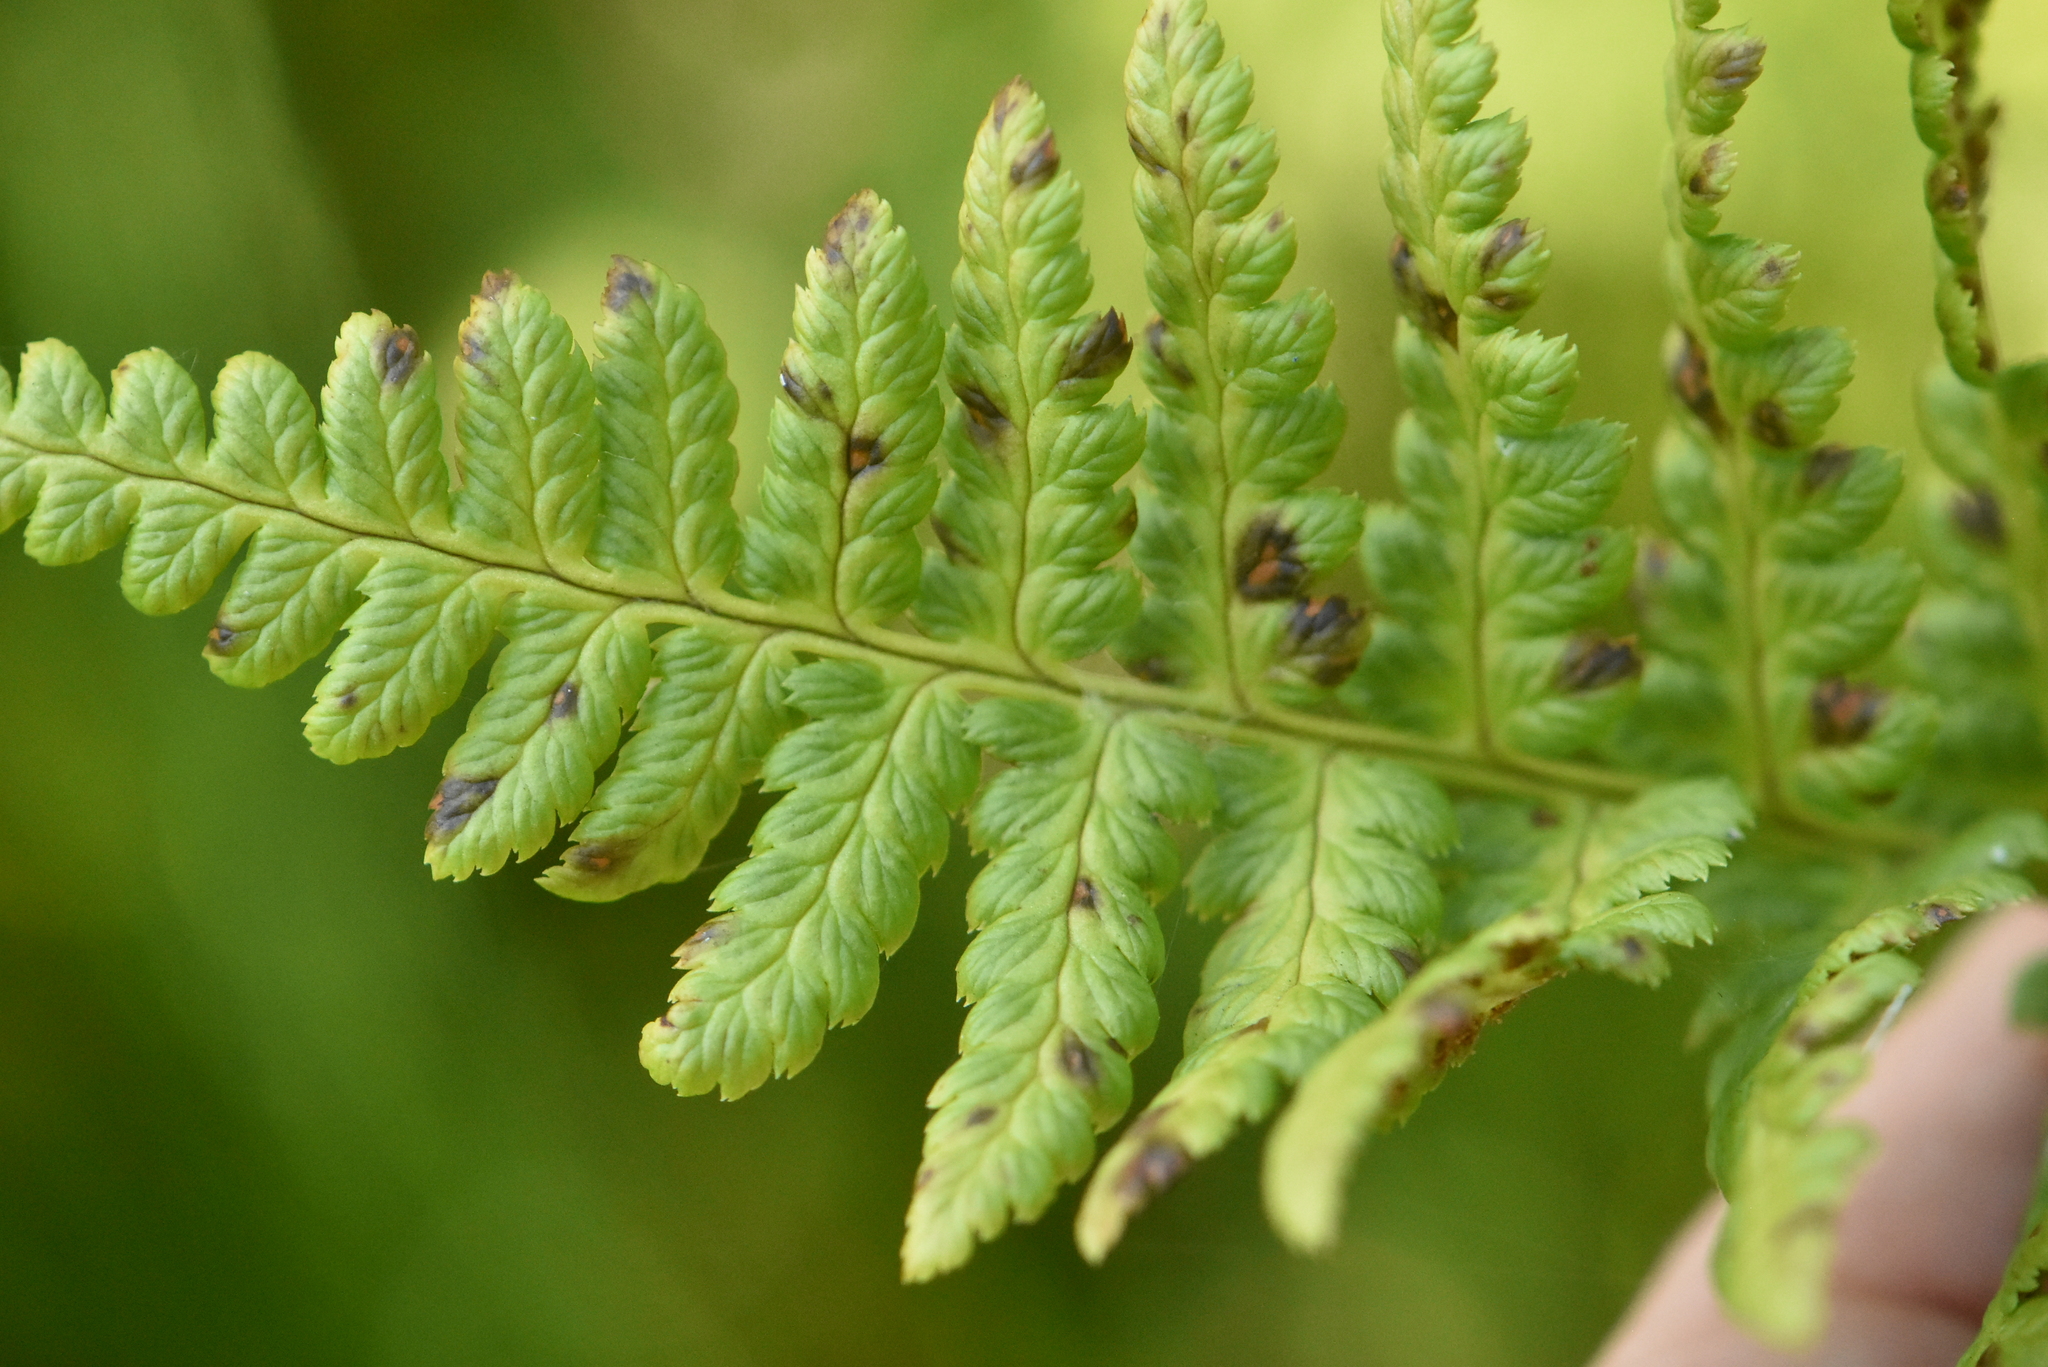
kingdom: Plantae
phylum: Tracheophyta
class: Polypodiopsida
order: Polypodiales
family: Dryopteridaceae
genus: Dryopteris
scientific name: Dryopteris cristata
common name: Crested wood fern
